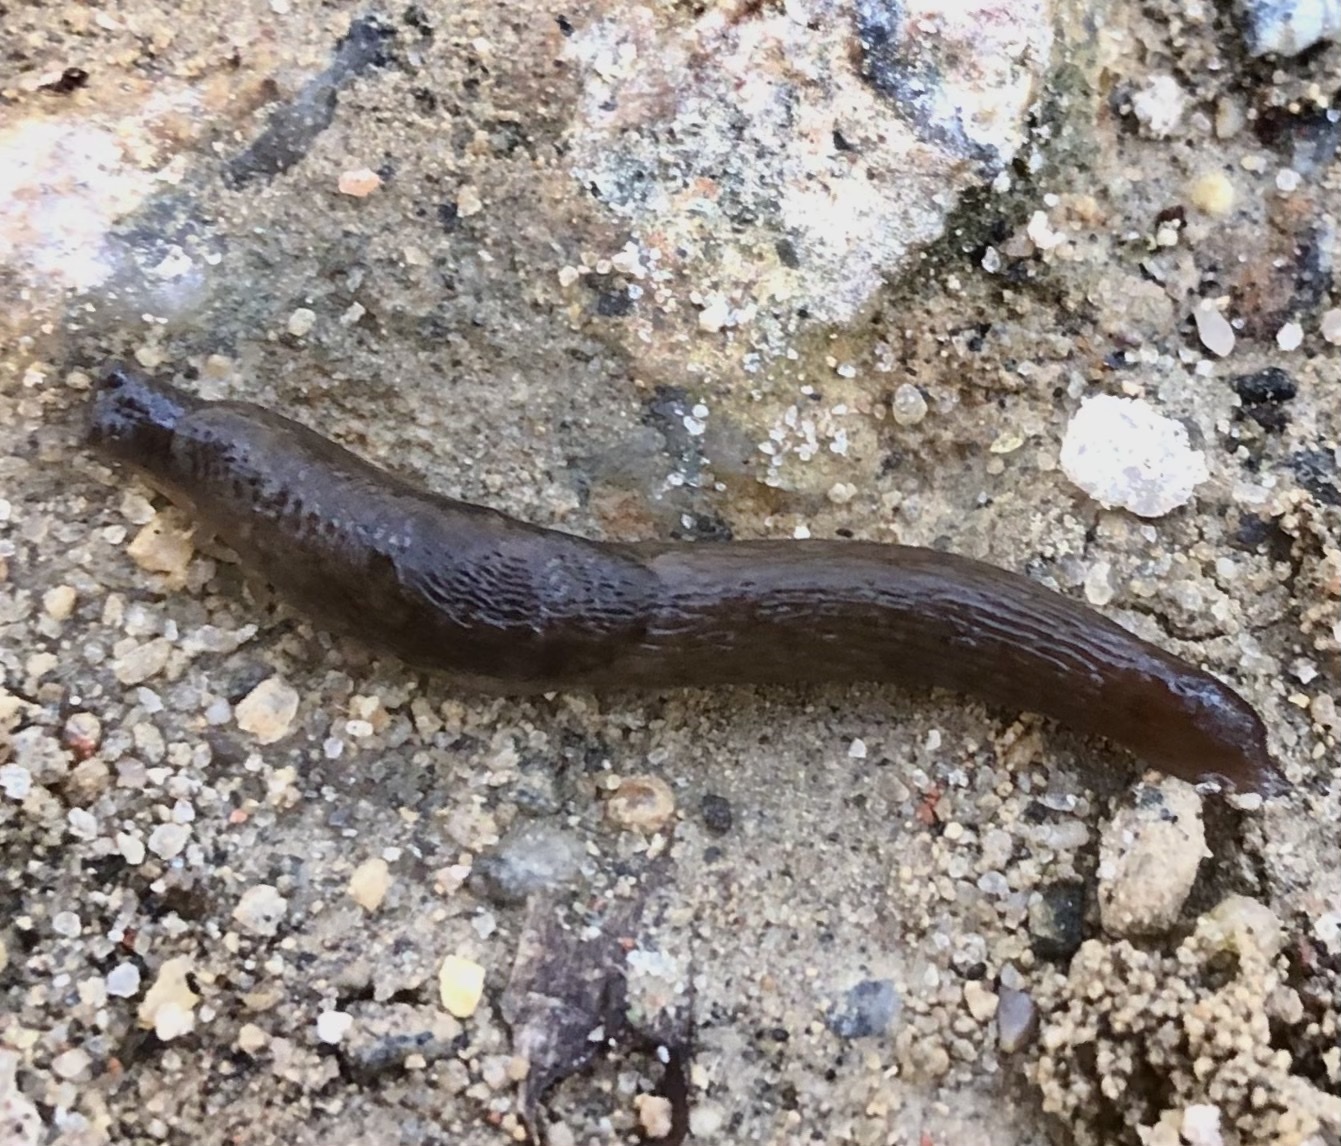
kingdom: Animalia
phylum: Mollusca
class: Gastropoda
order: Stylommatophora
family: Agriolimacidae
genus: Deroceras
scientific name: Deroceras laeve
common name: Marsh slug
